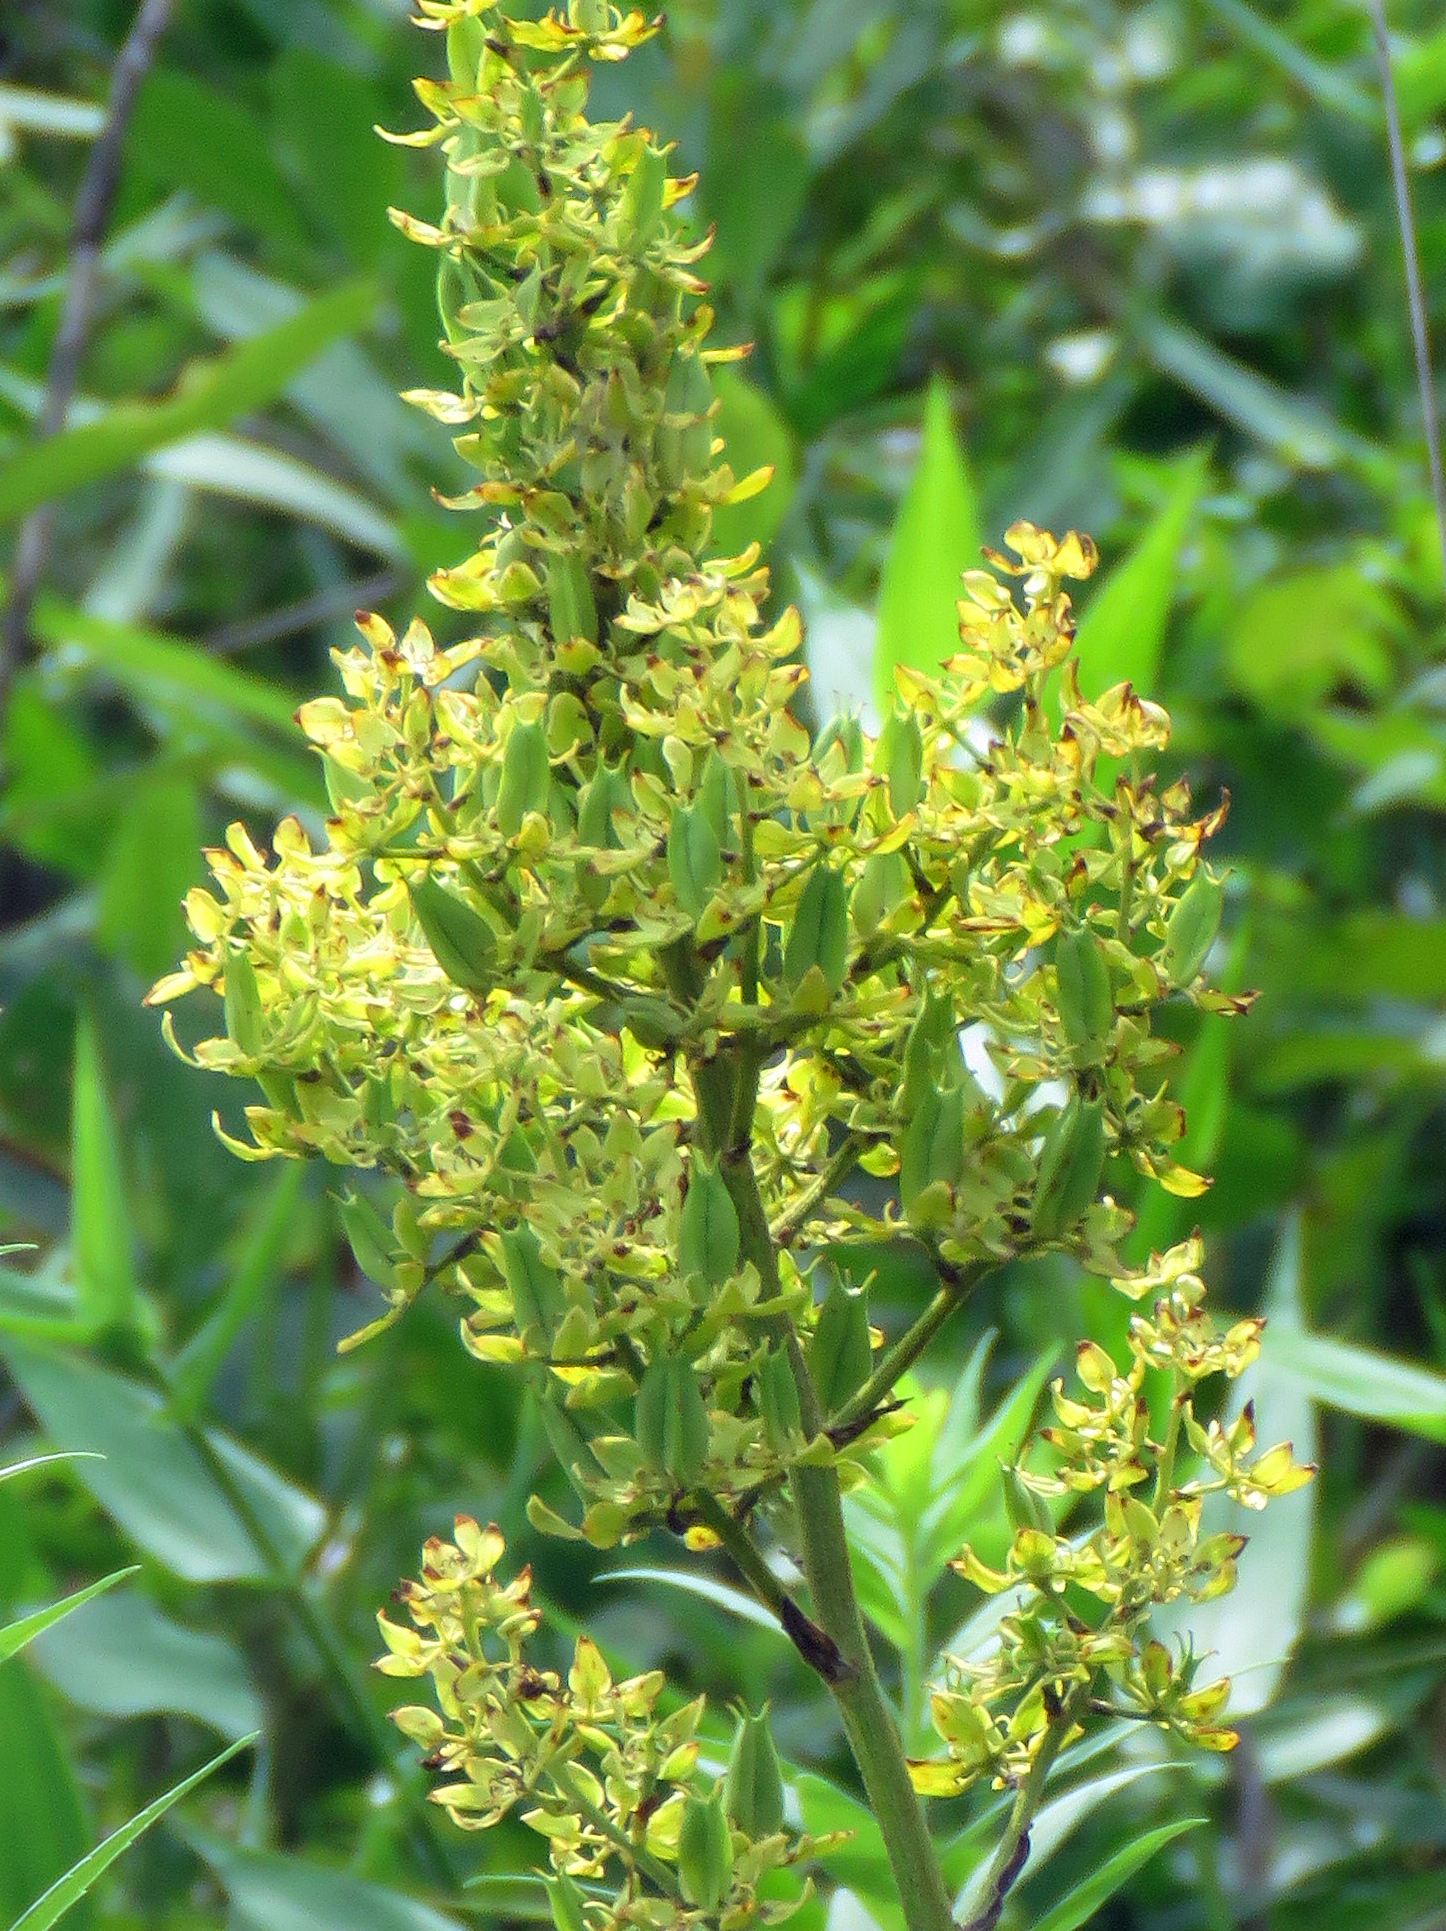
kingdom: Plantae
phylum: Tracheophyta
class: Liliopsida
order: Liliales
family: Melanthiaceae
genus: Melanthium
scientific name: Melanthium virginicum
